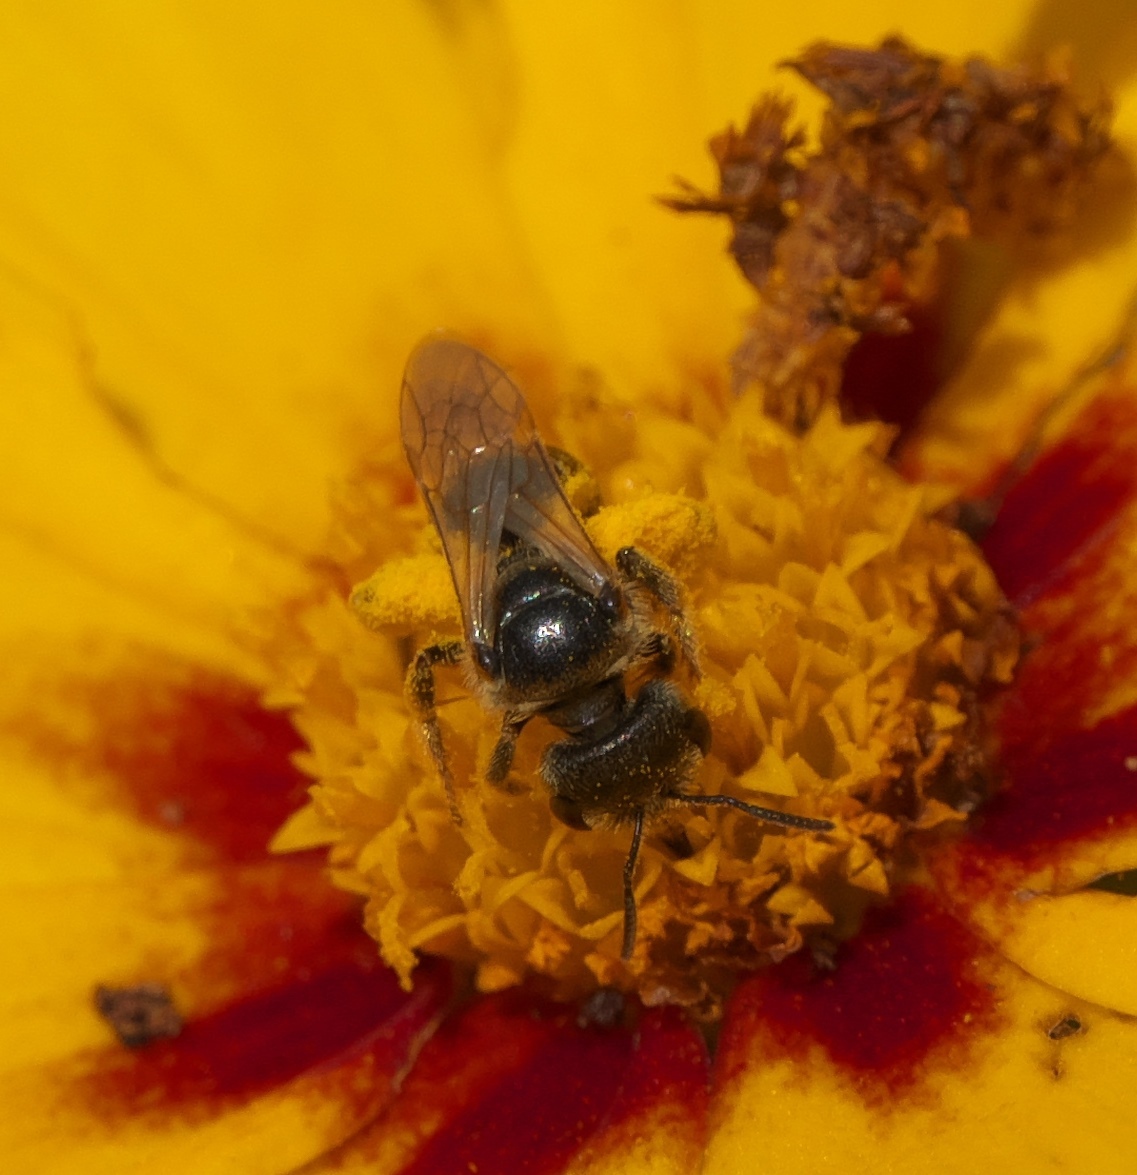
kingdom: Animalia
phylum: Arthropoda
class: Insecta
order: Hymenoptera
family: Halictidae
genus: Halictus
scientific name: Halictus ligatus
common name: Ligated furrow bee
